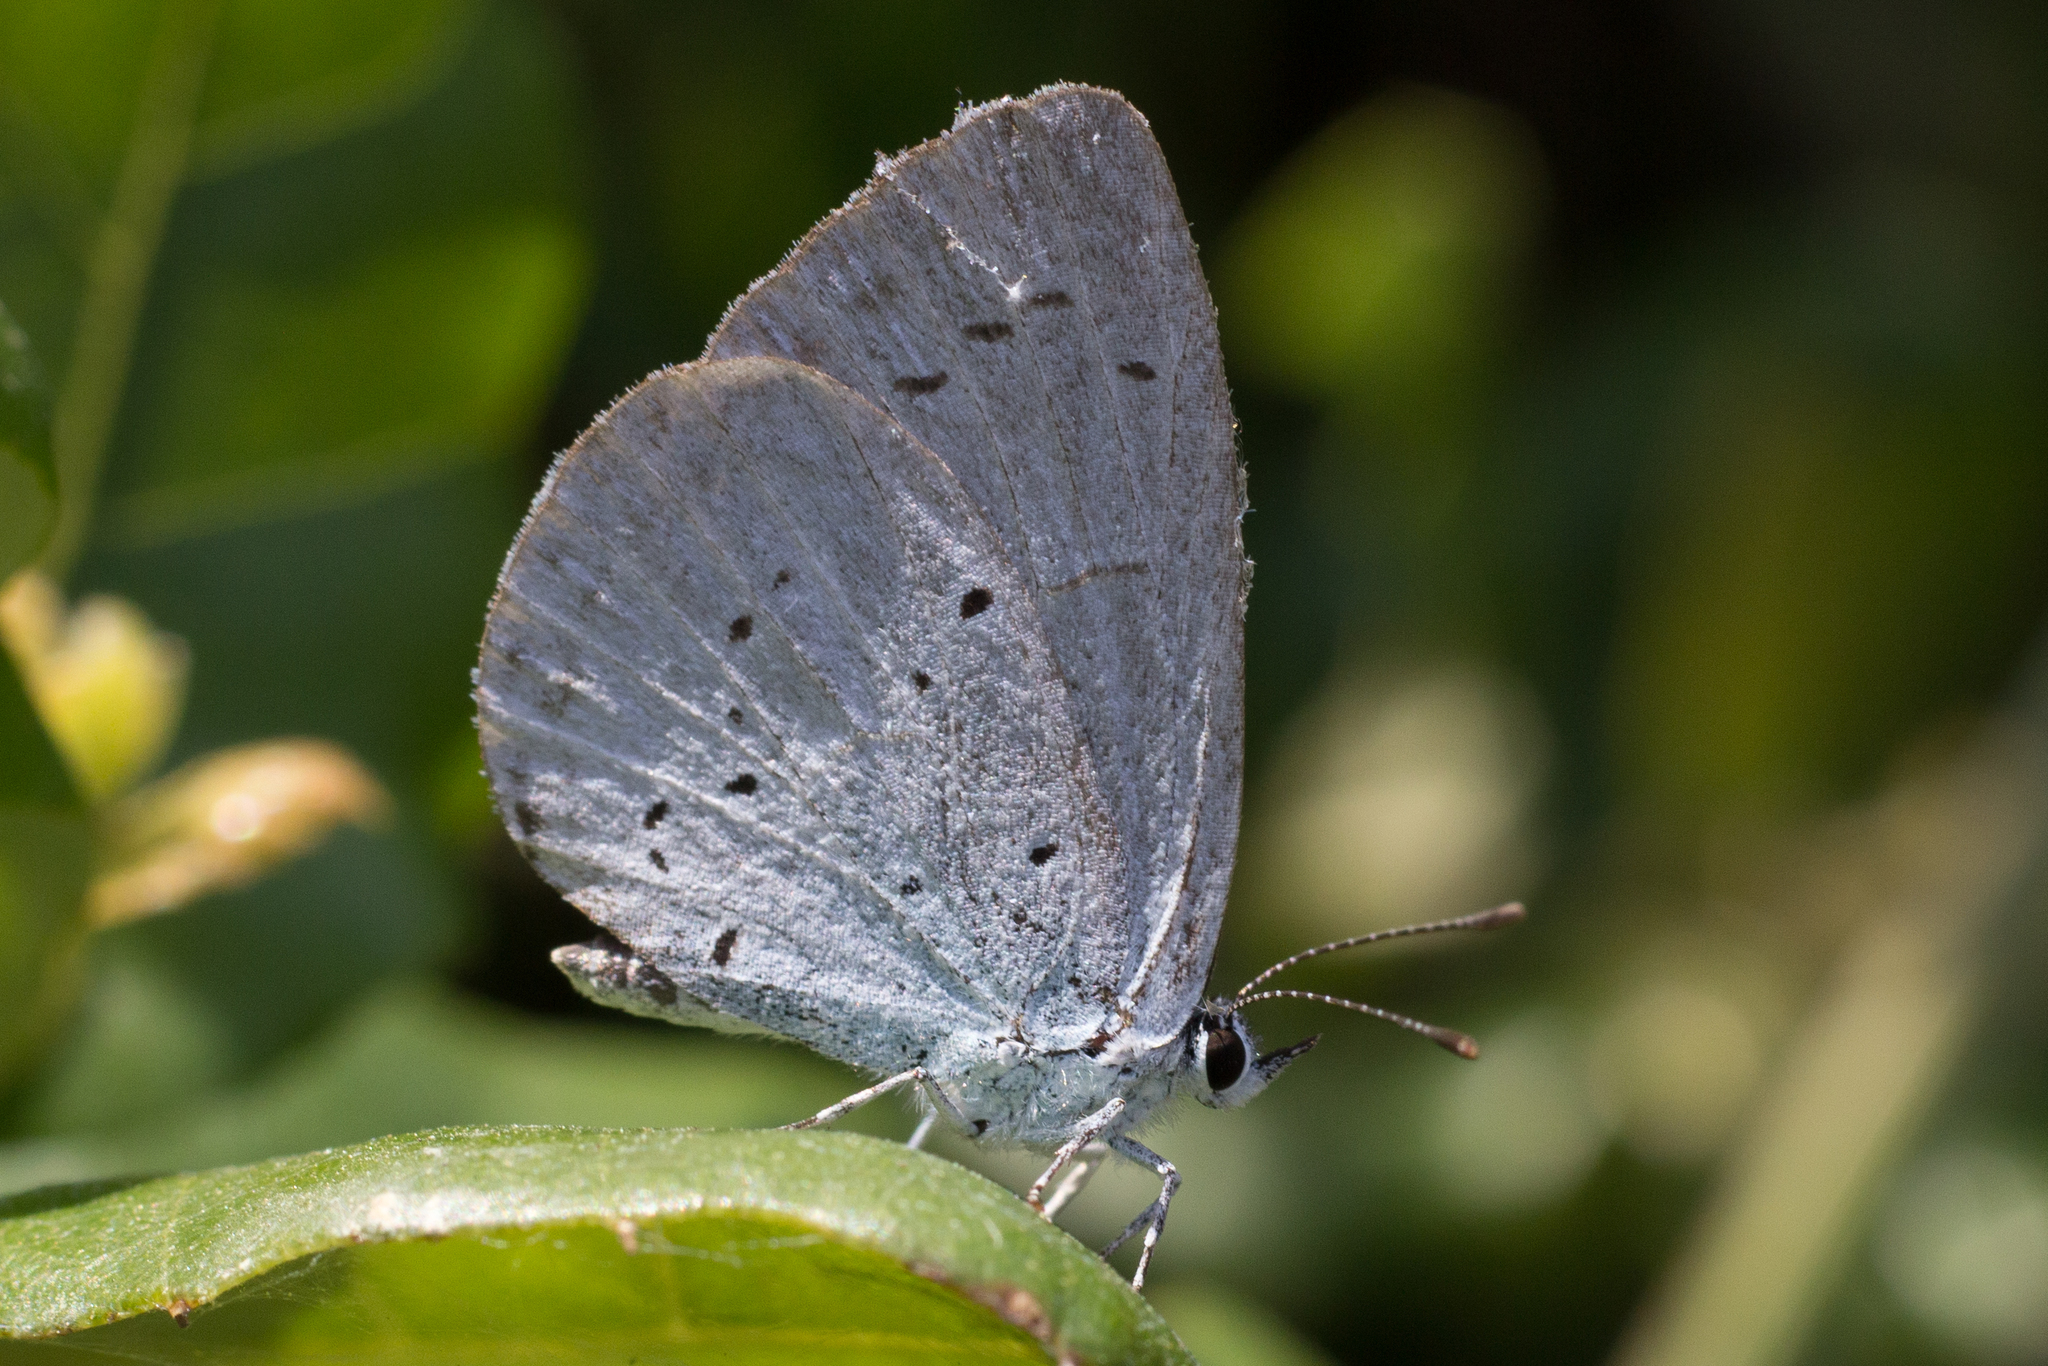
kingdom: Animalia
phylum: Arthropoda
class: Insecta
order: Lepidoptera
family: Lycaenidae
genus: Celastrina
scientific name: Celastrina argiolus
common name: Holly blue
